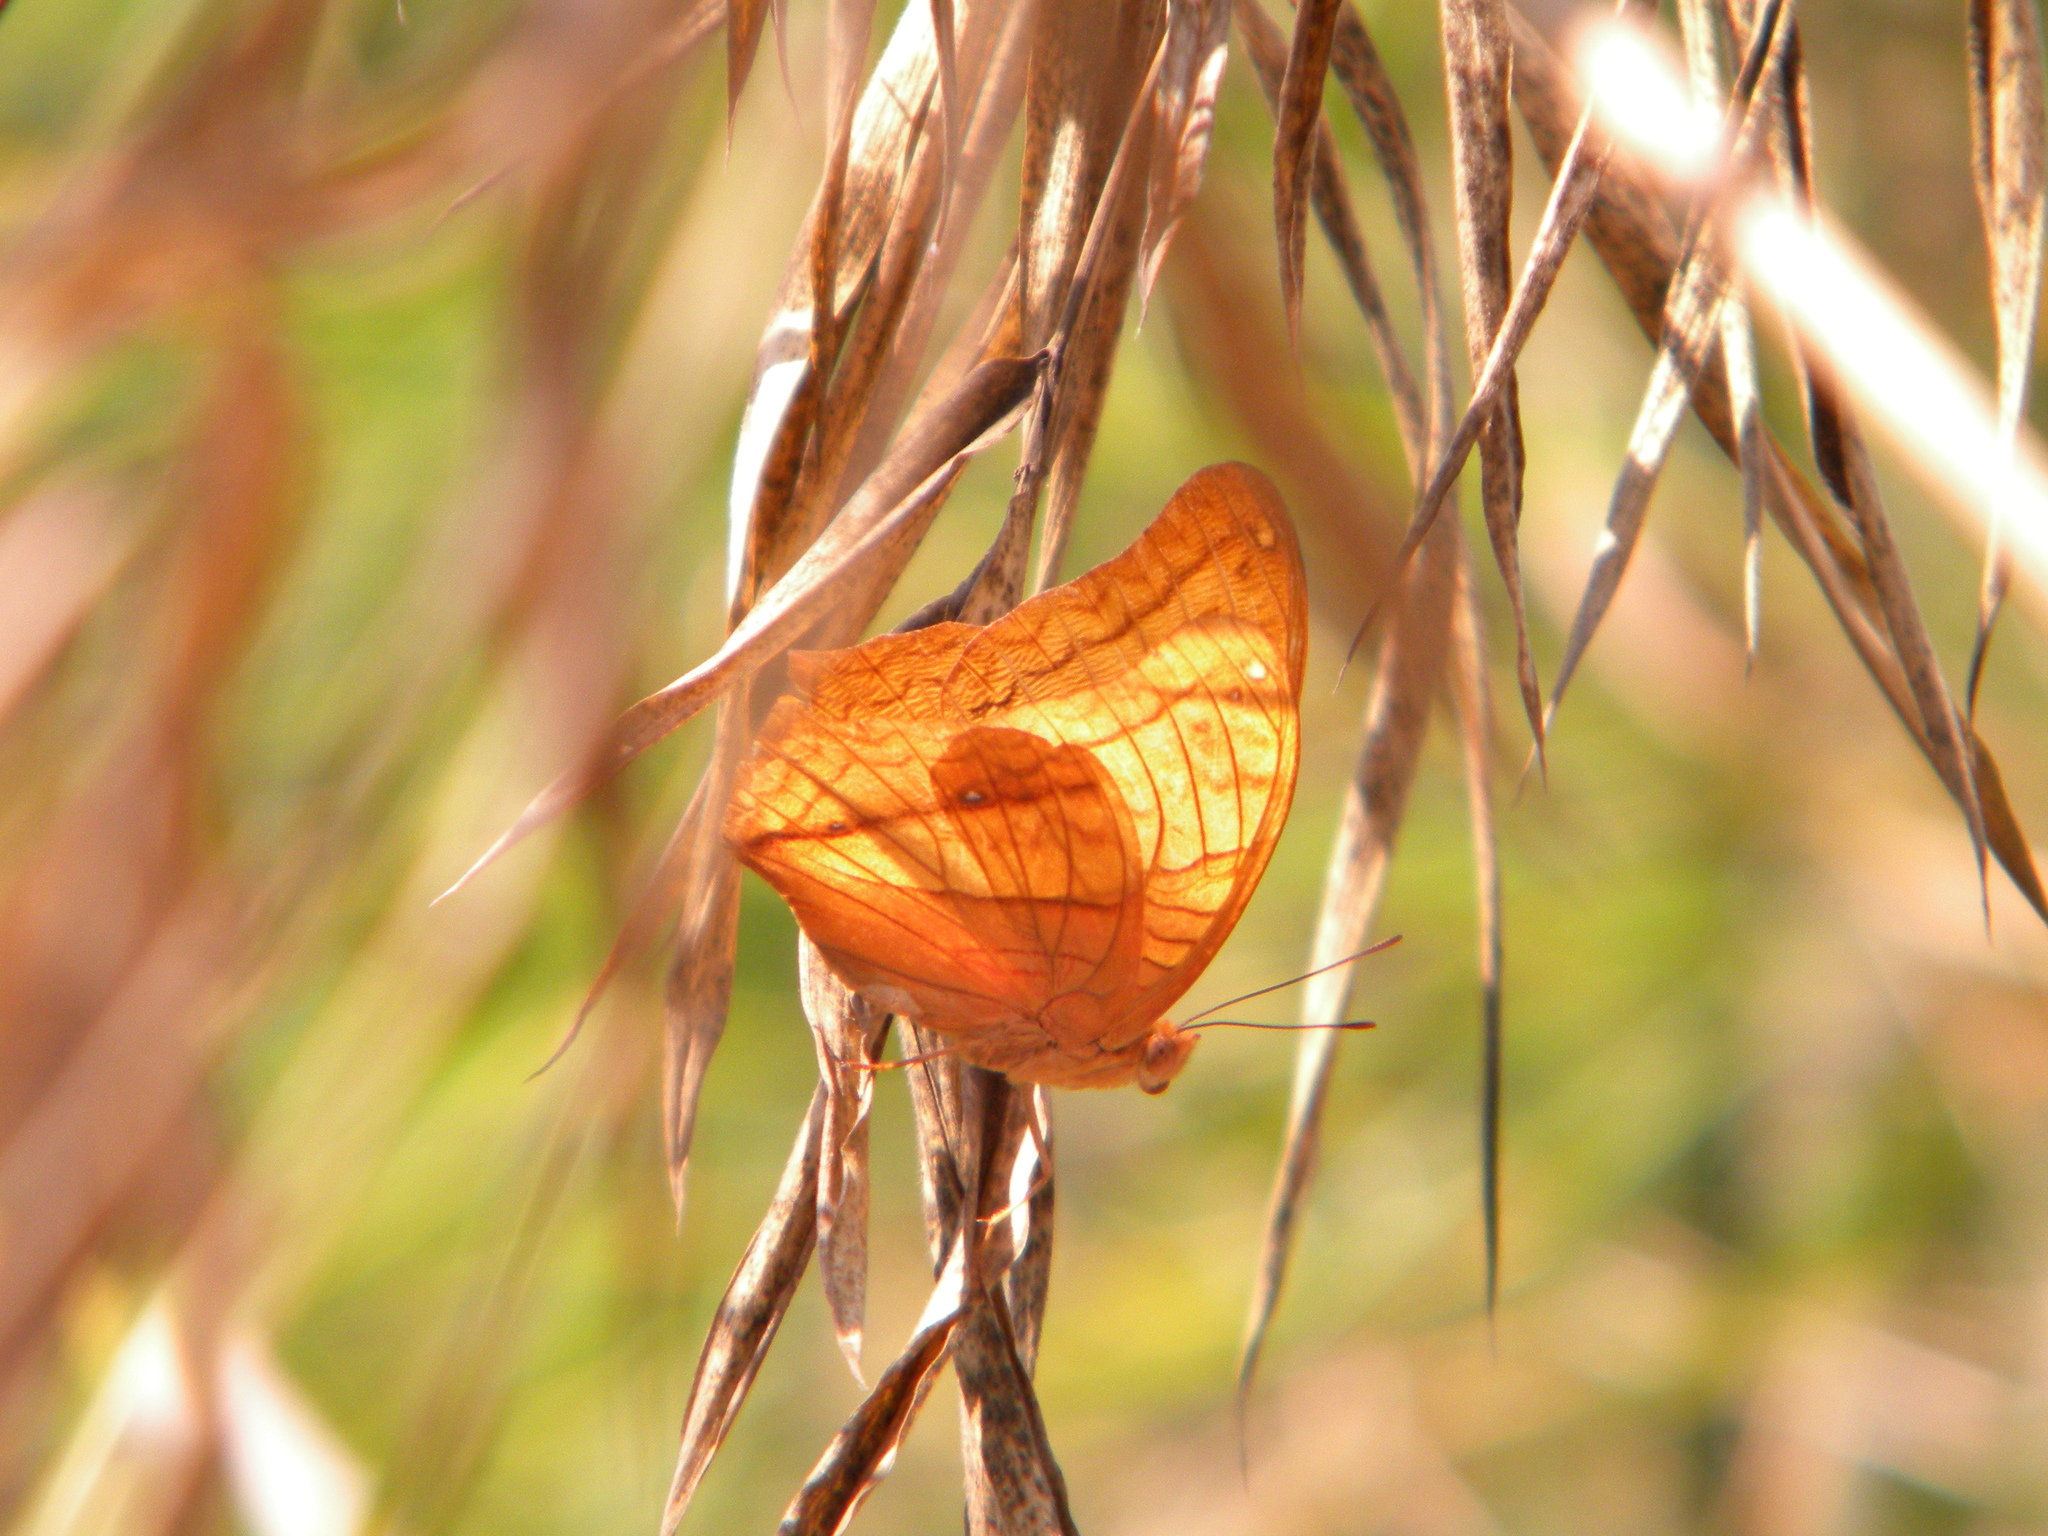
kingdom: Animalia
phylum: Arthropoda
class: Insecta
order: Lepidoptera
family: Nymphalidae
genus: Vindula
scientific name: Vindula erota
